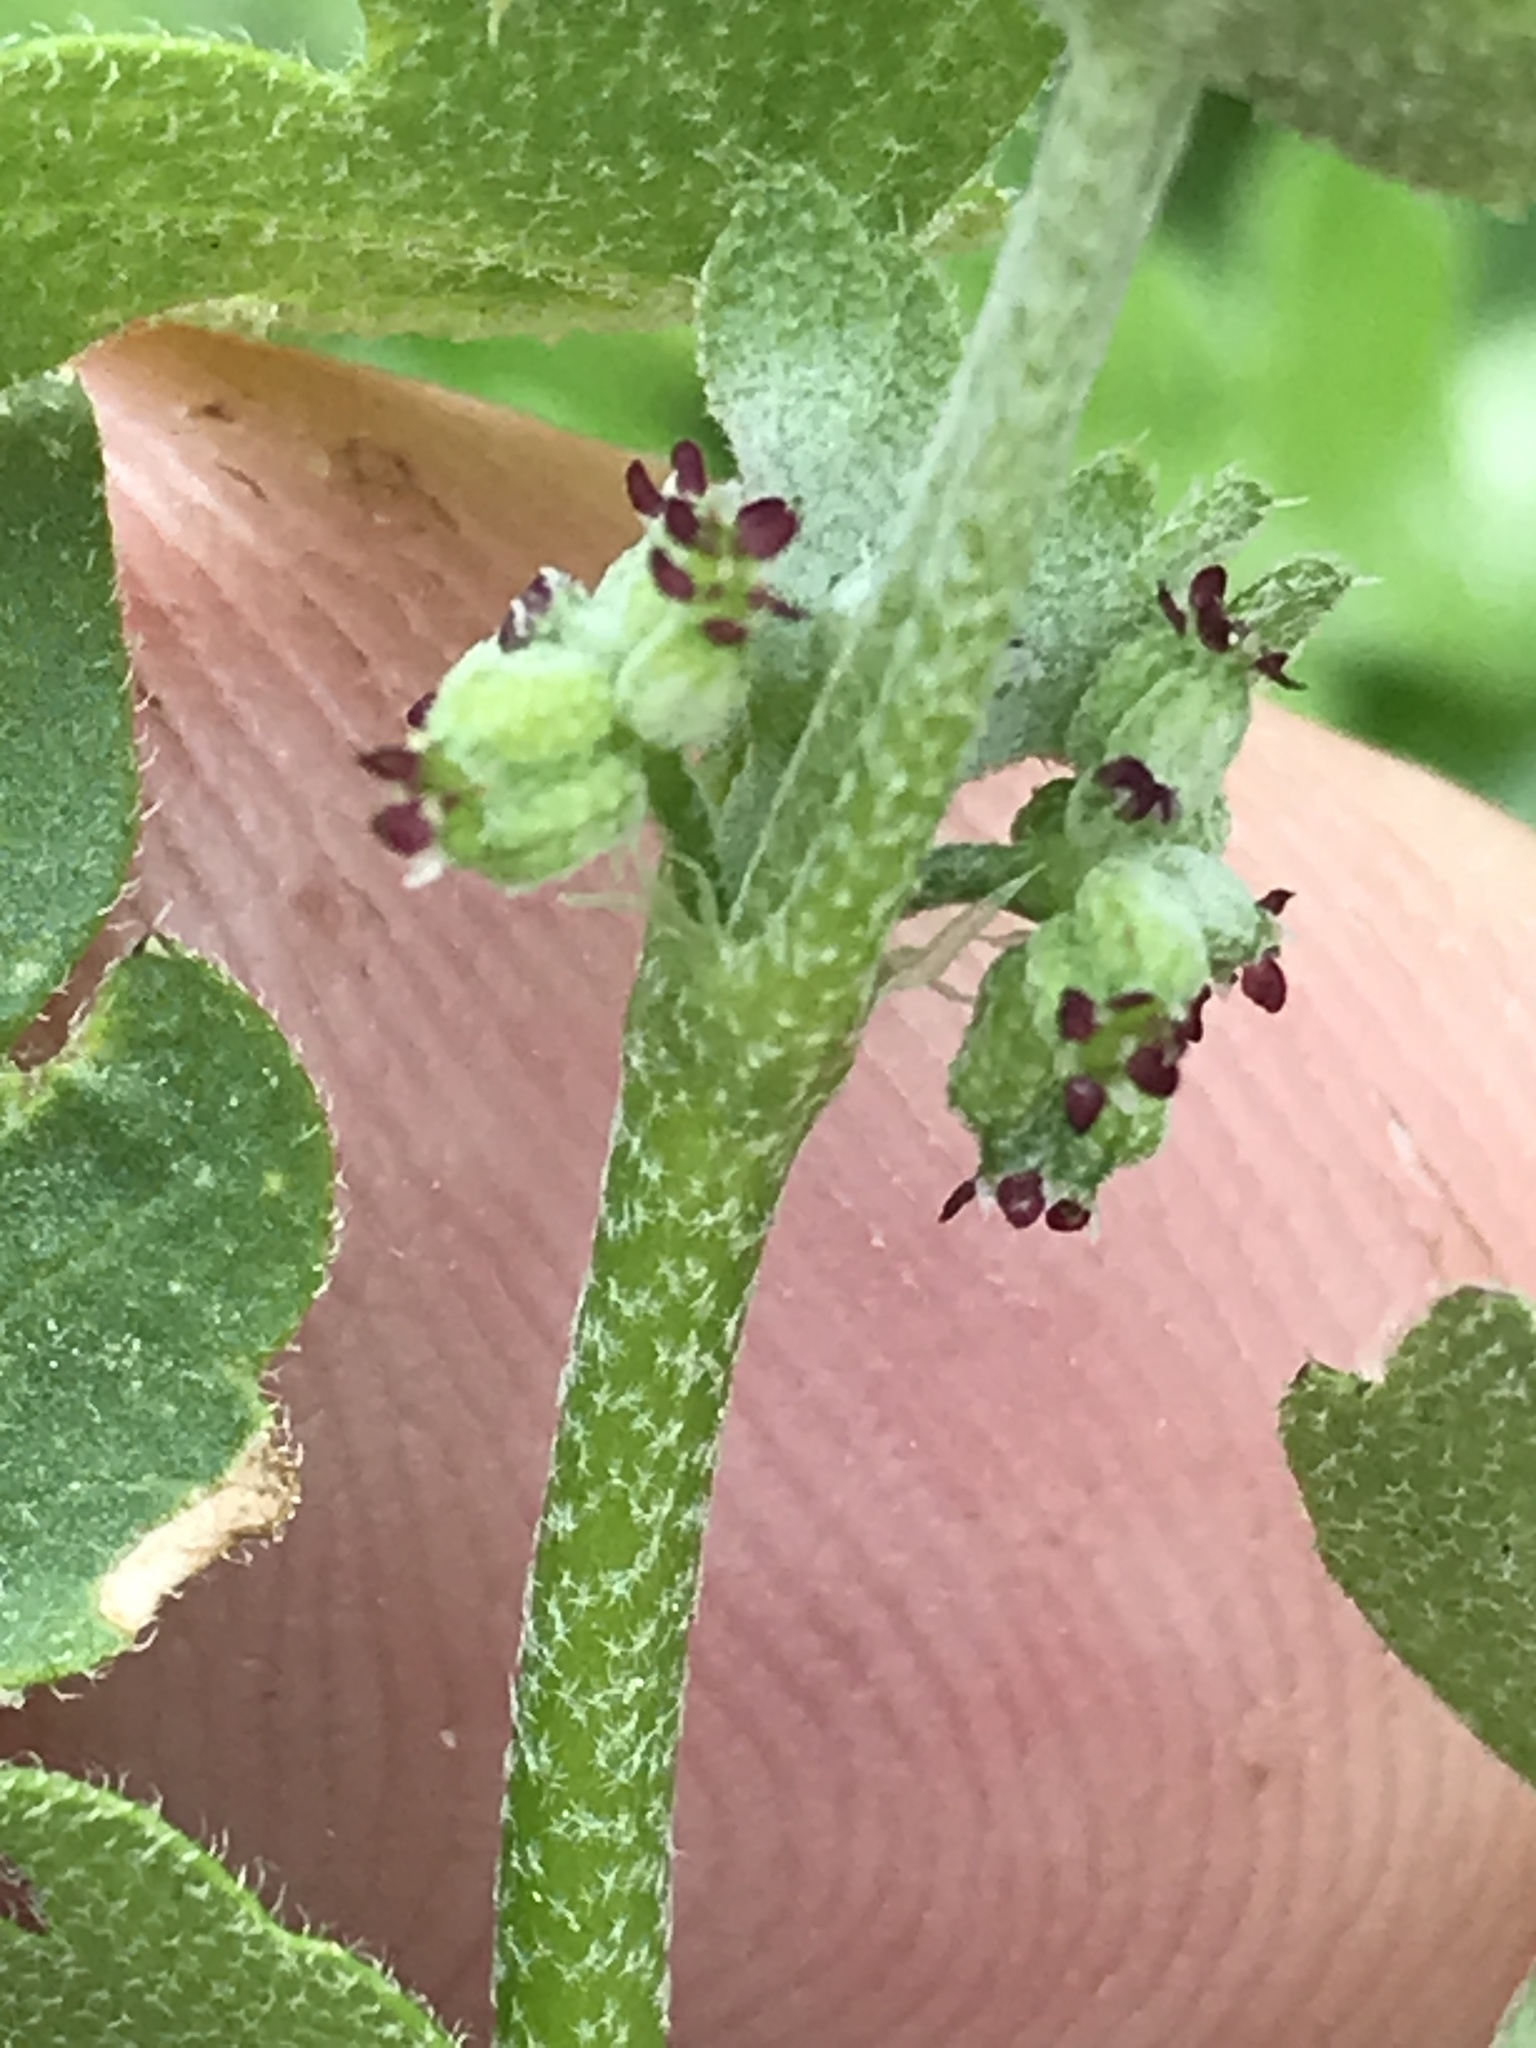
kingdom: Plantae
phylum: Tracheophyta
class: Magnoliopsida
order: Apiales
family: Apiaceae
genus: Bowlesia
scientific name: Bowlesia incana
